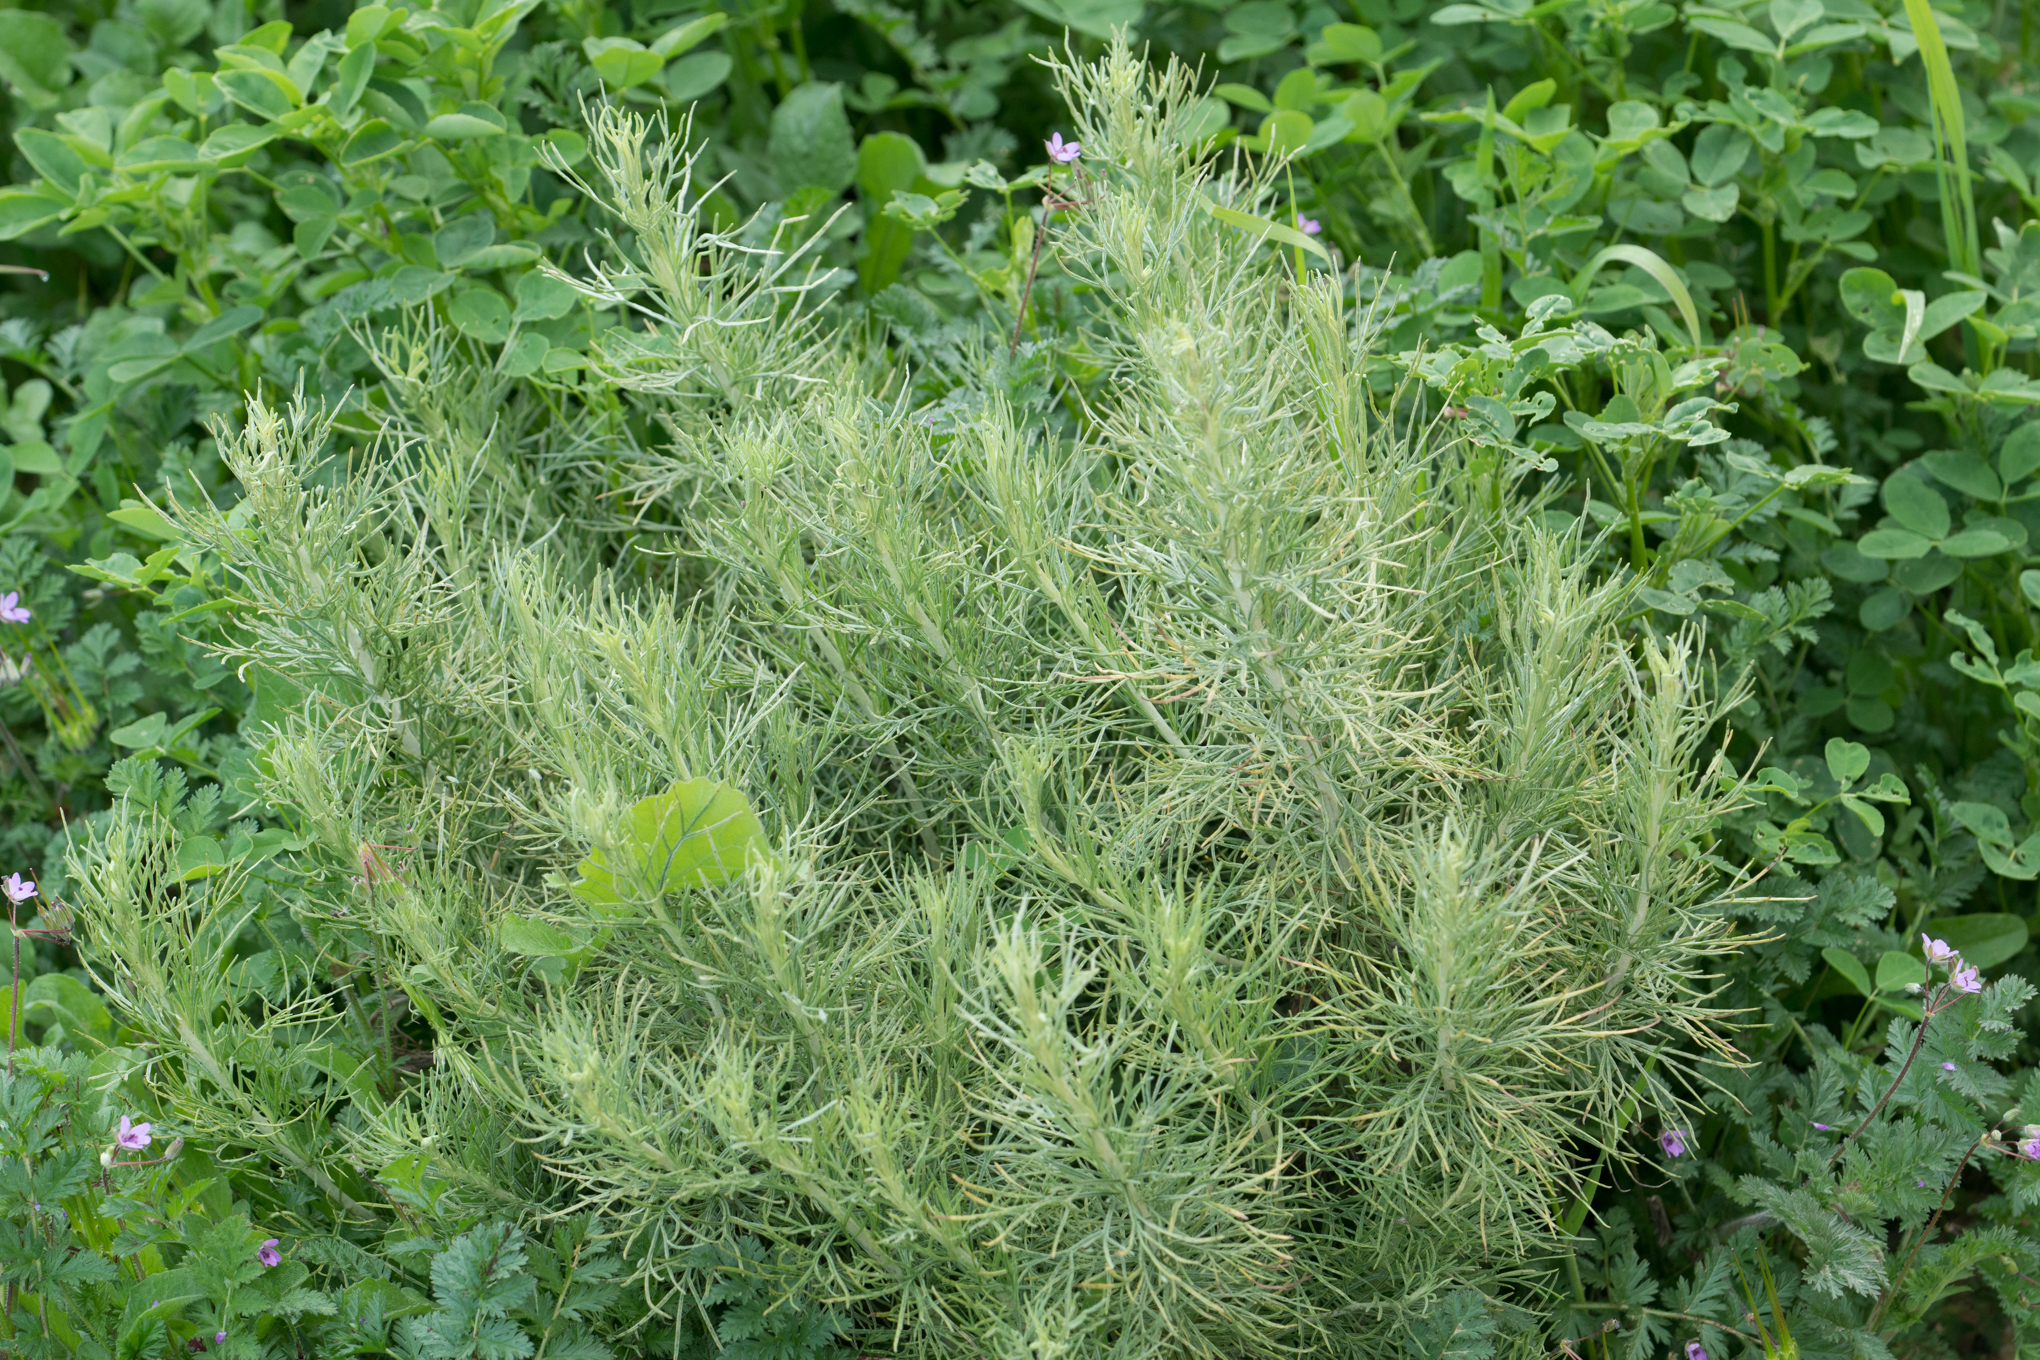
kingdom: Plantae
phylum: Tracheophyta
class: Magnoliopsida
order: Asterales
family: Asteraceae
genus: Artemisia
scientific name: Artemisia californica
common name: California sagebrush
